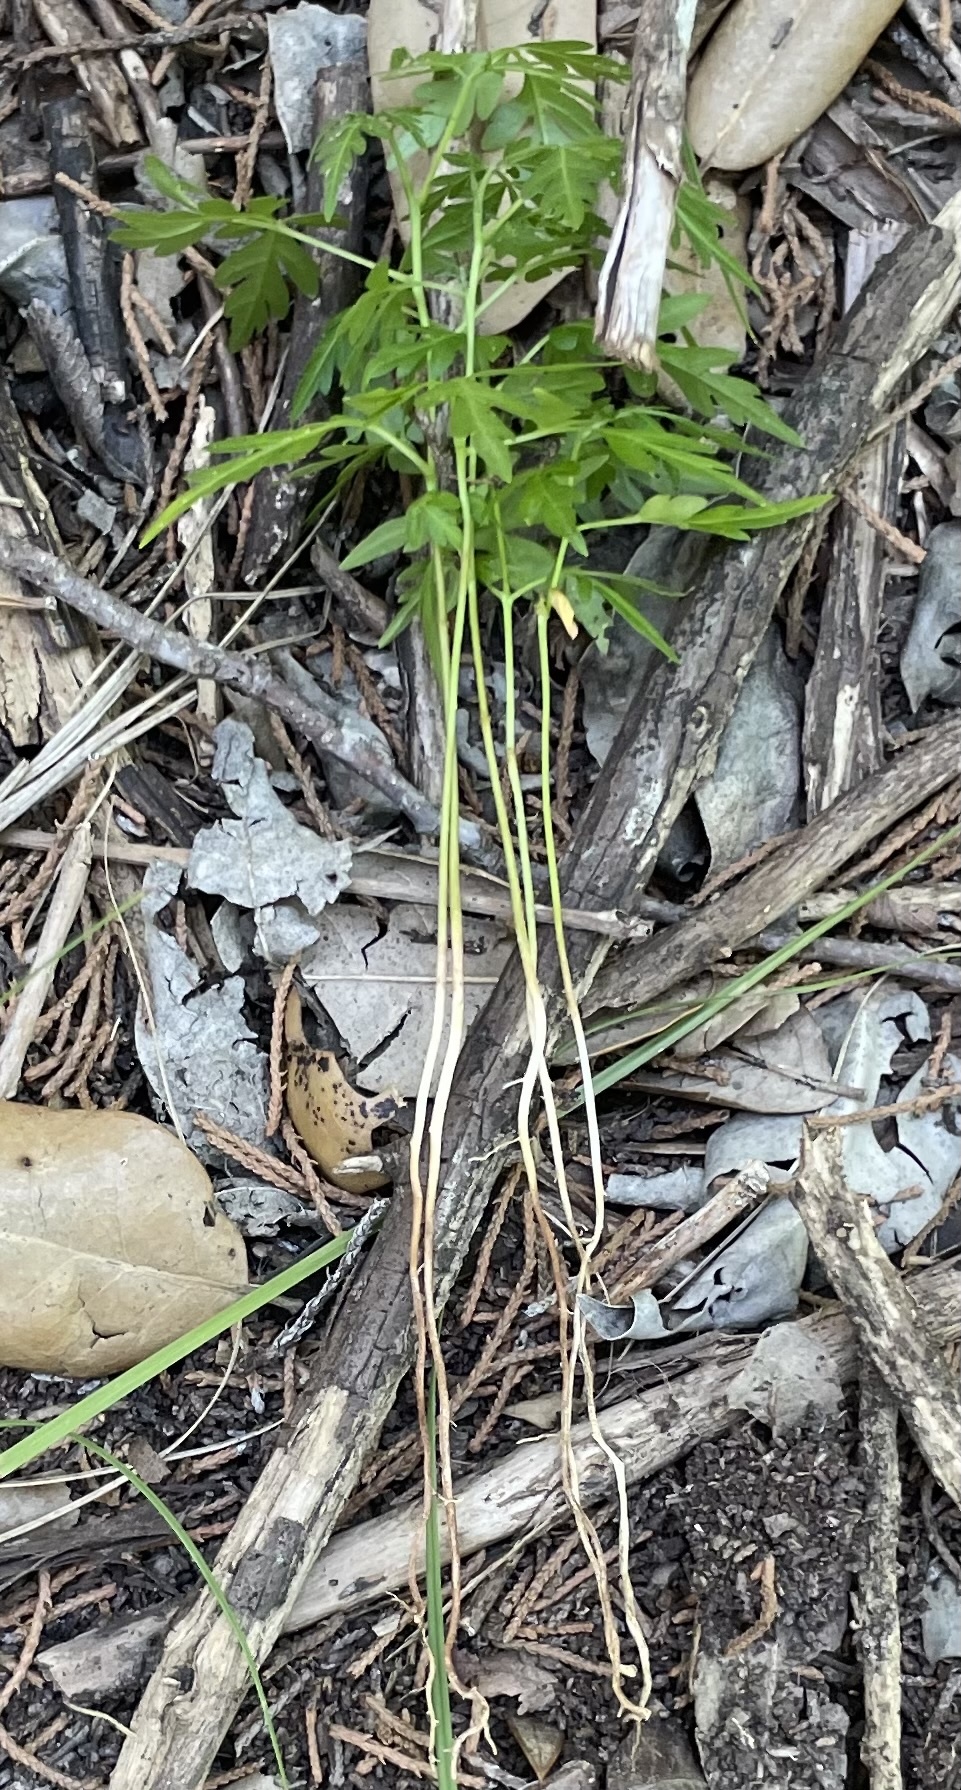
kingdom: Plantae
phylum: Tracheophyta
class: Magnoliopsida
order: Sapindales
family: Meliaceae
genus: Melia
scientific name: Melia azedarach
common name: Chinaberrytree
